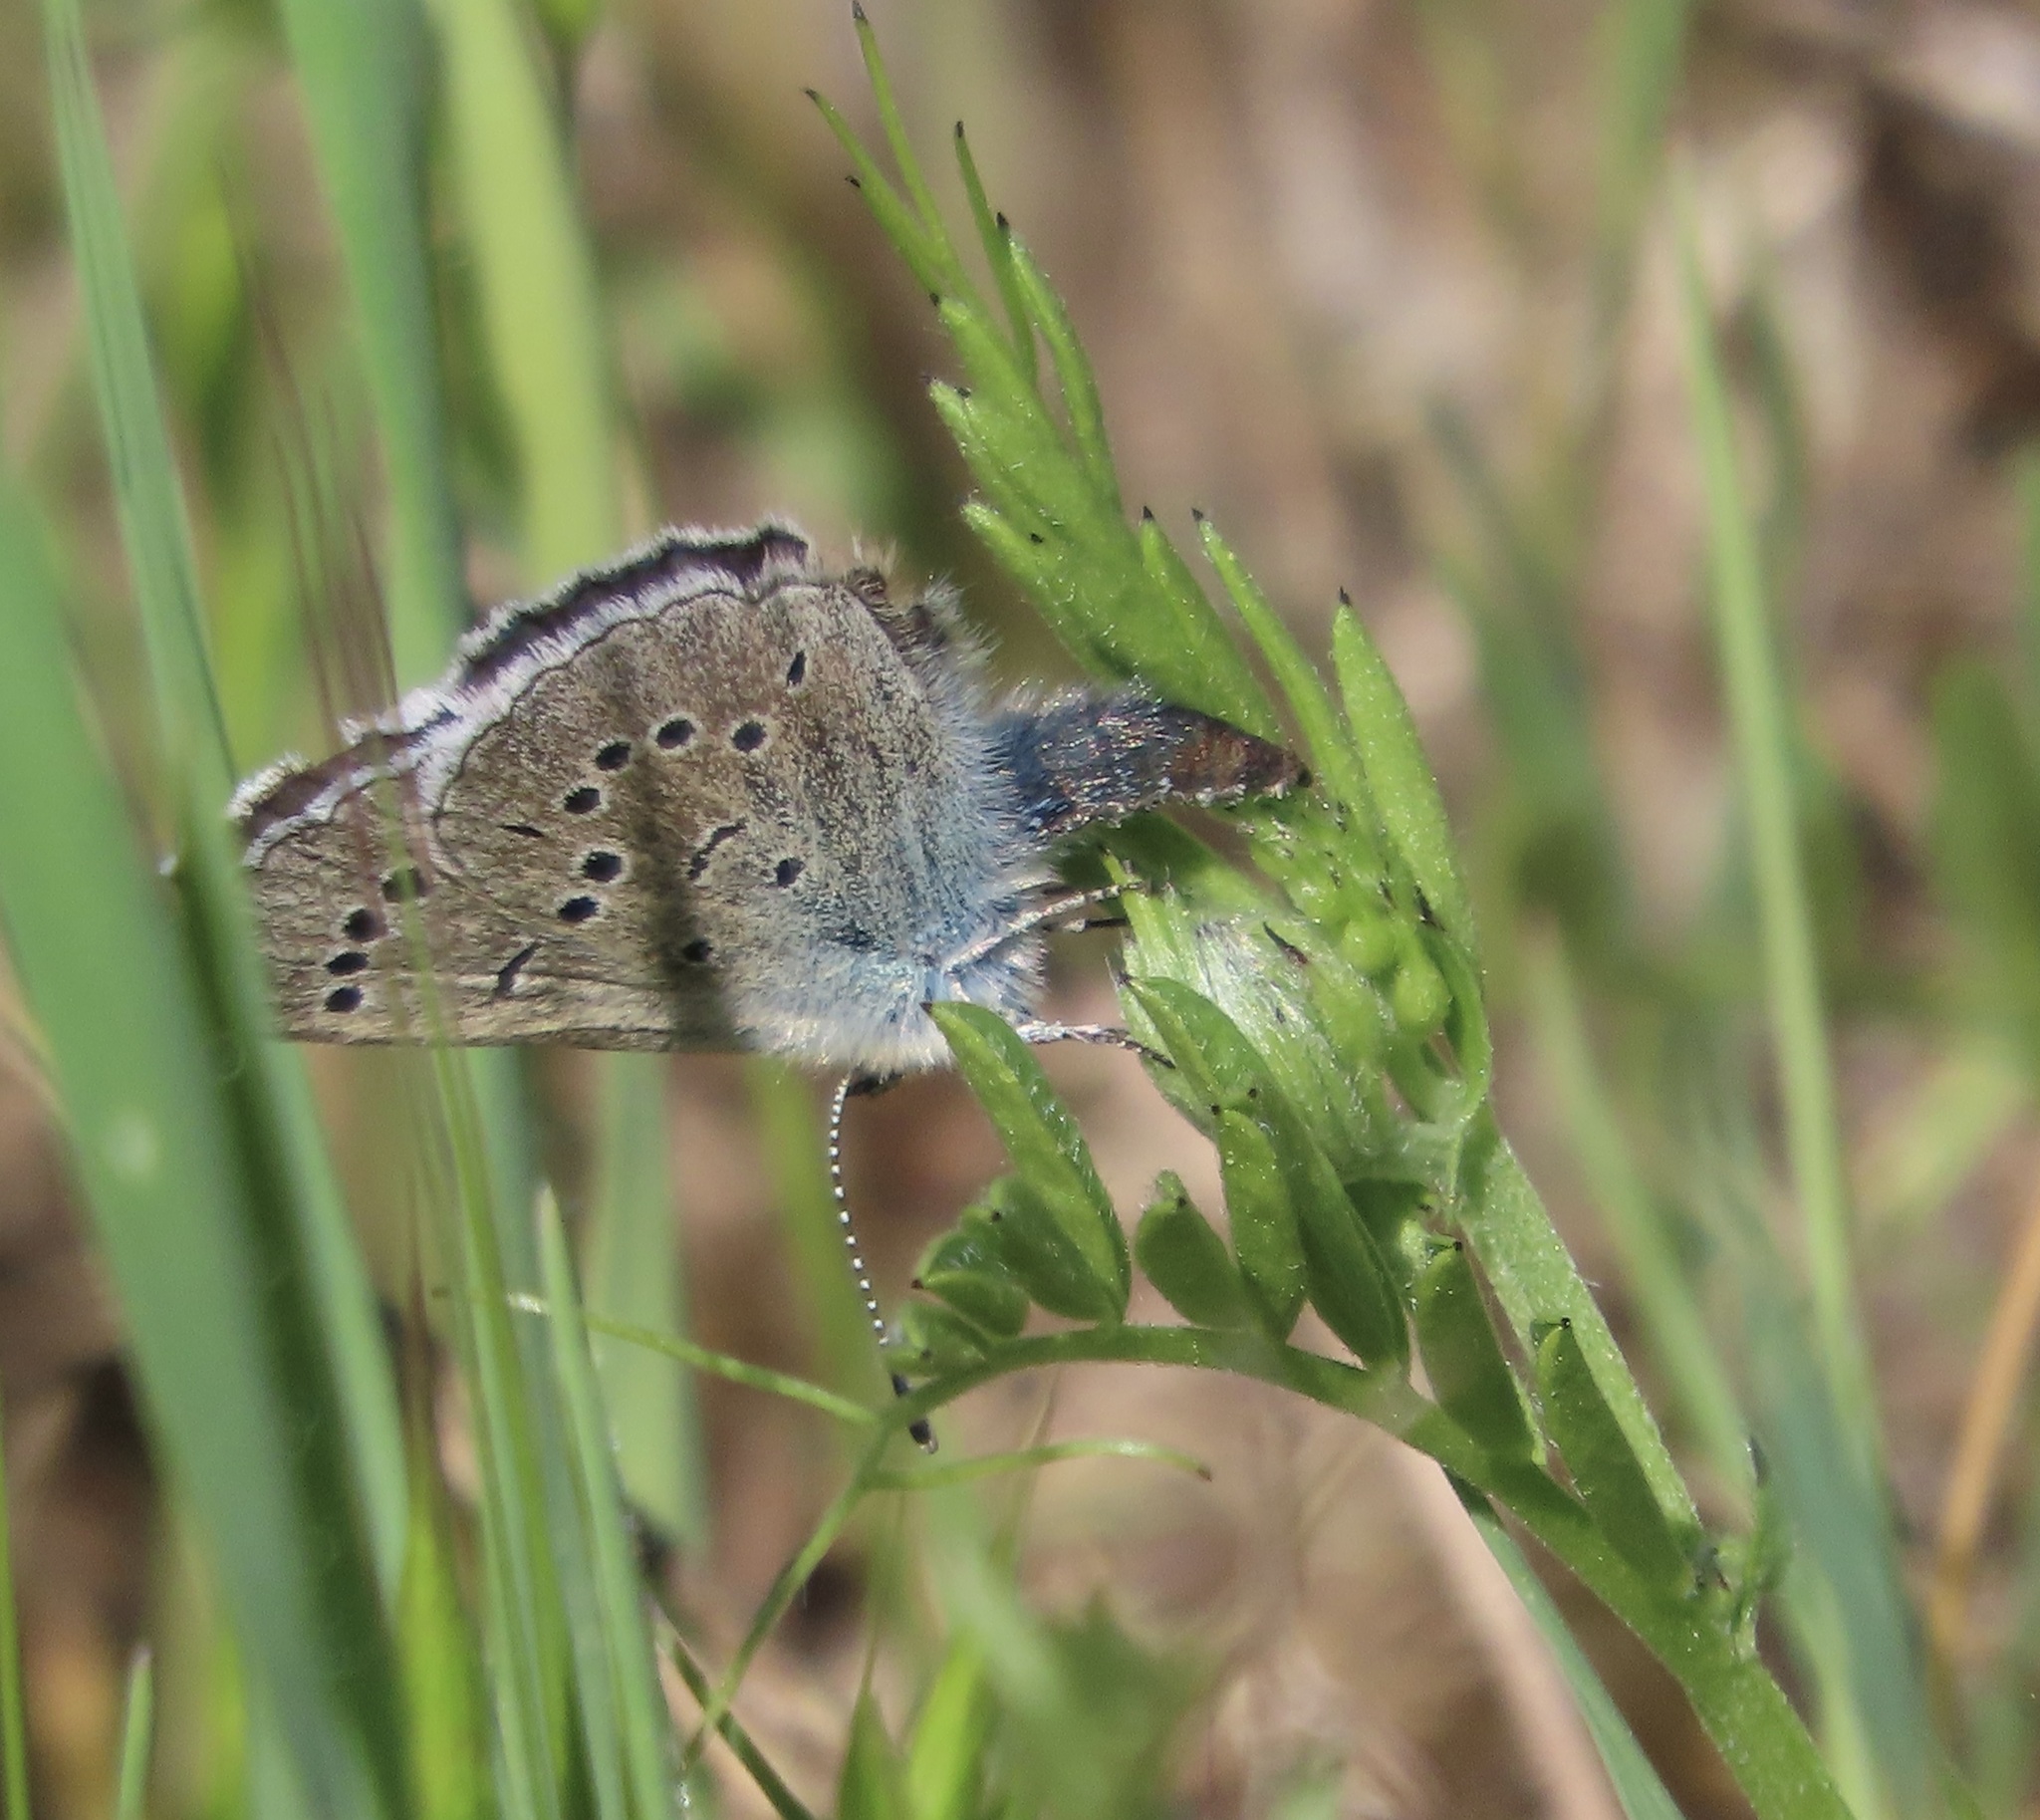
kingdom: Animalia
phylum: Arthropoda
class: Insecta
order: Lepidoptera
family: Lycaenidae
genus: Glaucopsyche
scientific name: Glaucopsyche lygdamus
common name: Silvery blue
